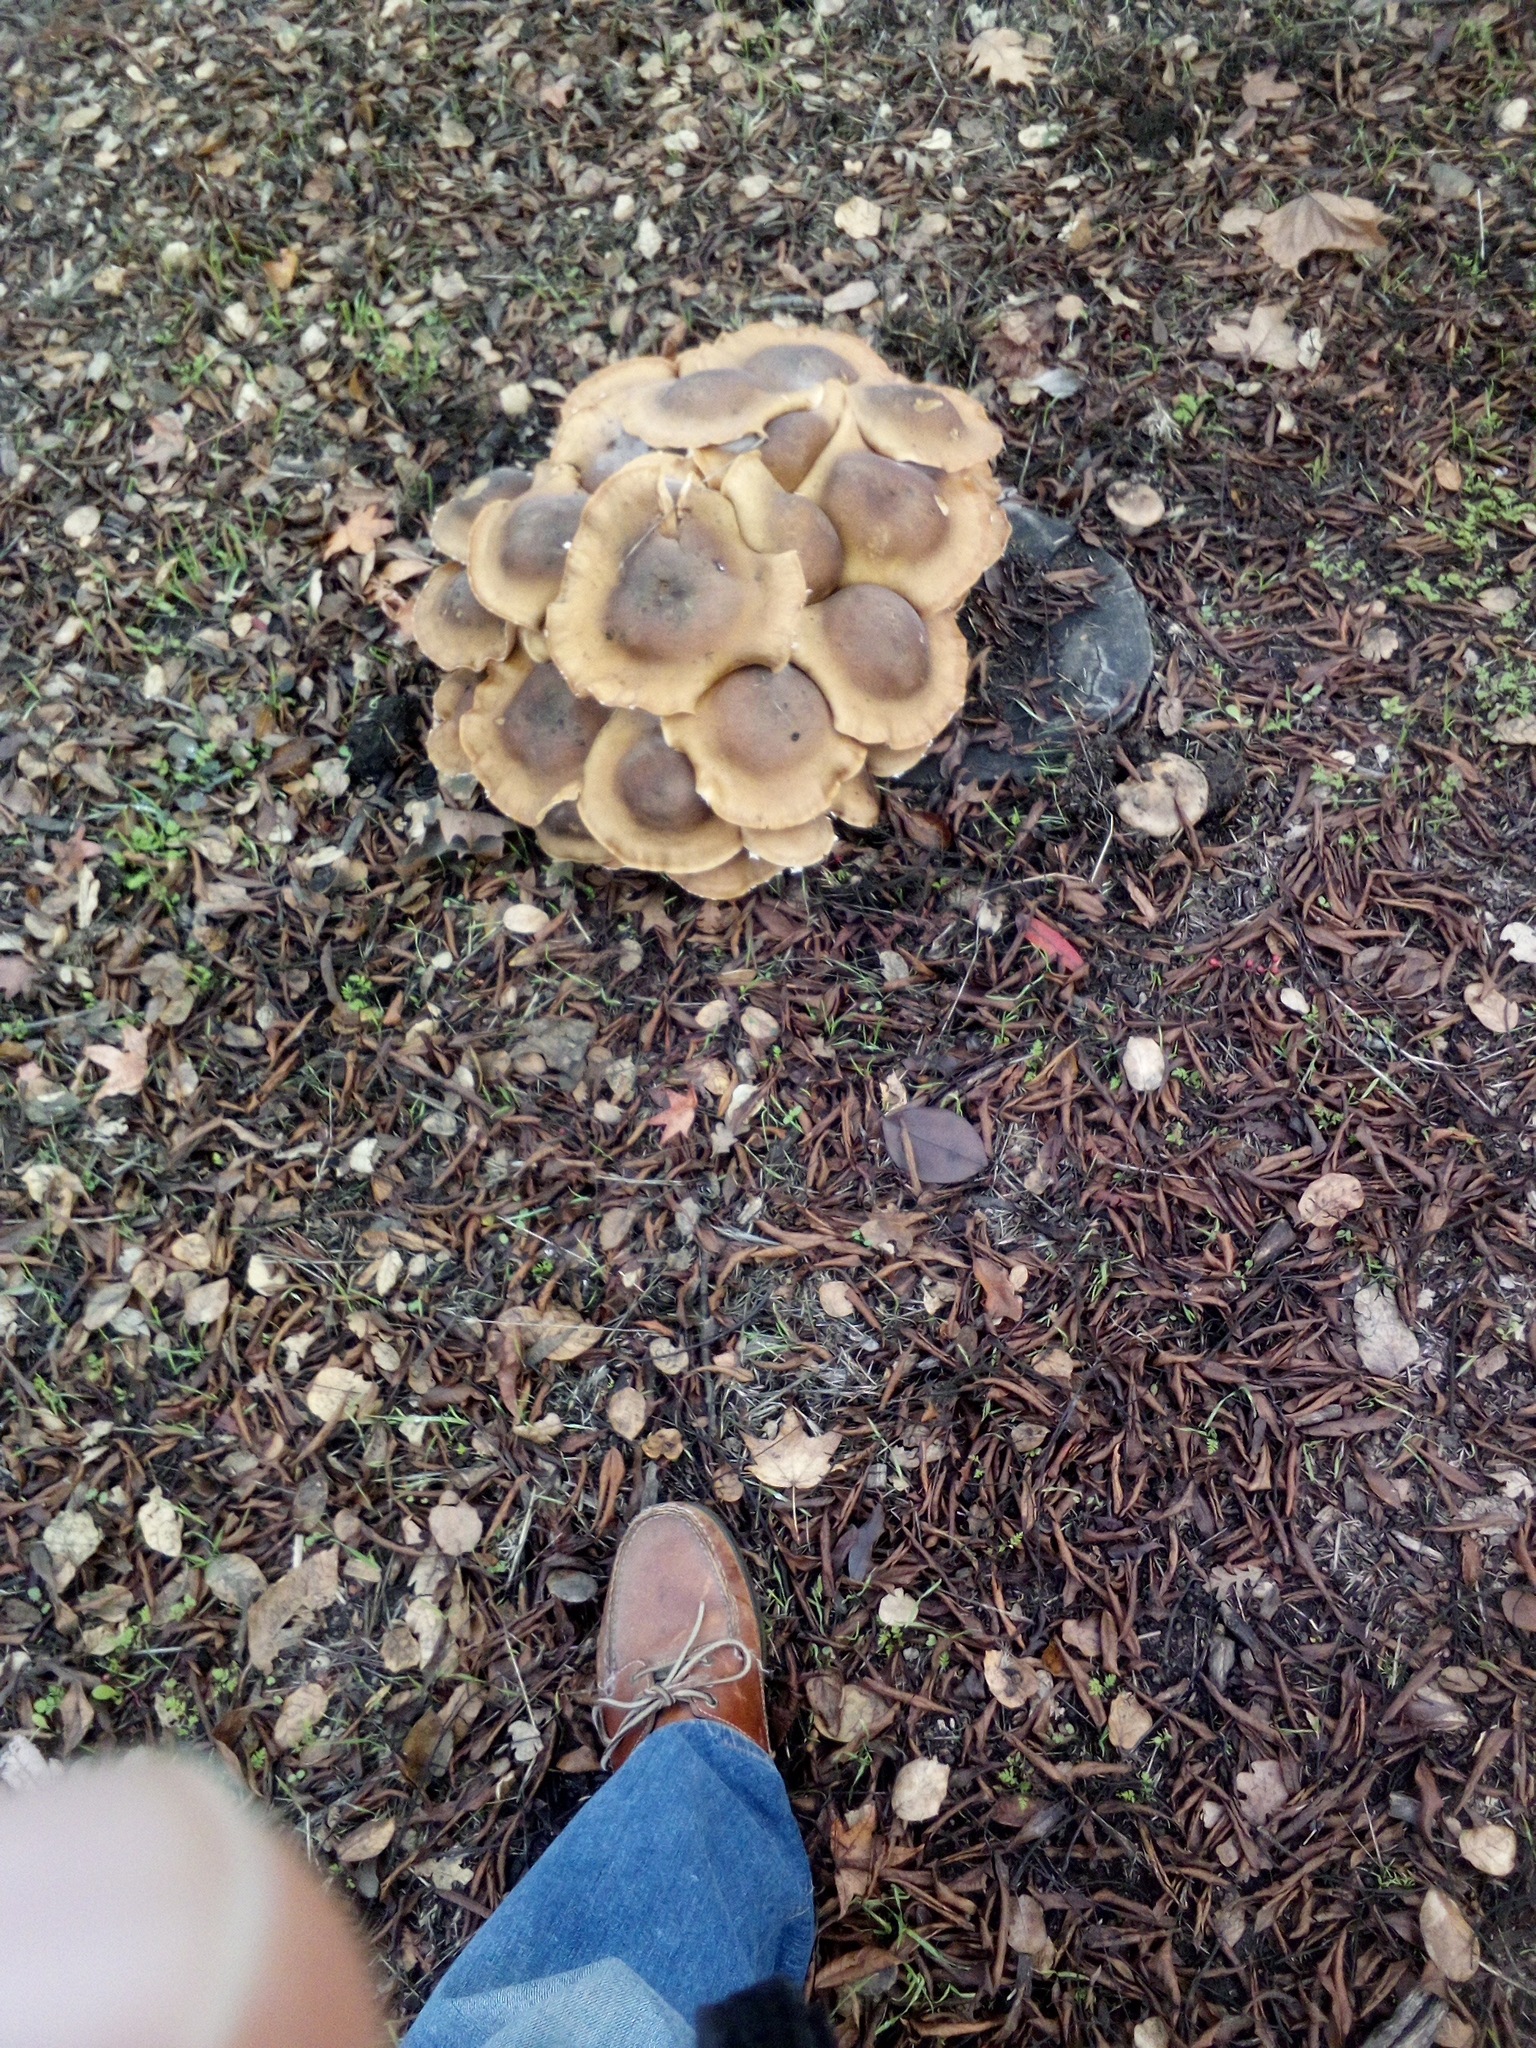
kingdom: Fungi
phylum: Basidiomycota
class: Agaricomycetes
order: Agaricales
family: Physalacriaceae
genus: Armillaria
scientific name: Armillaria mellea
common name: Honey fungus
